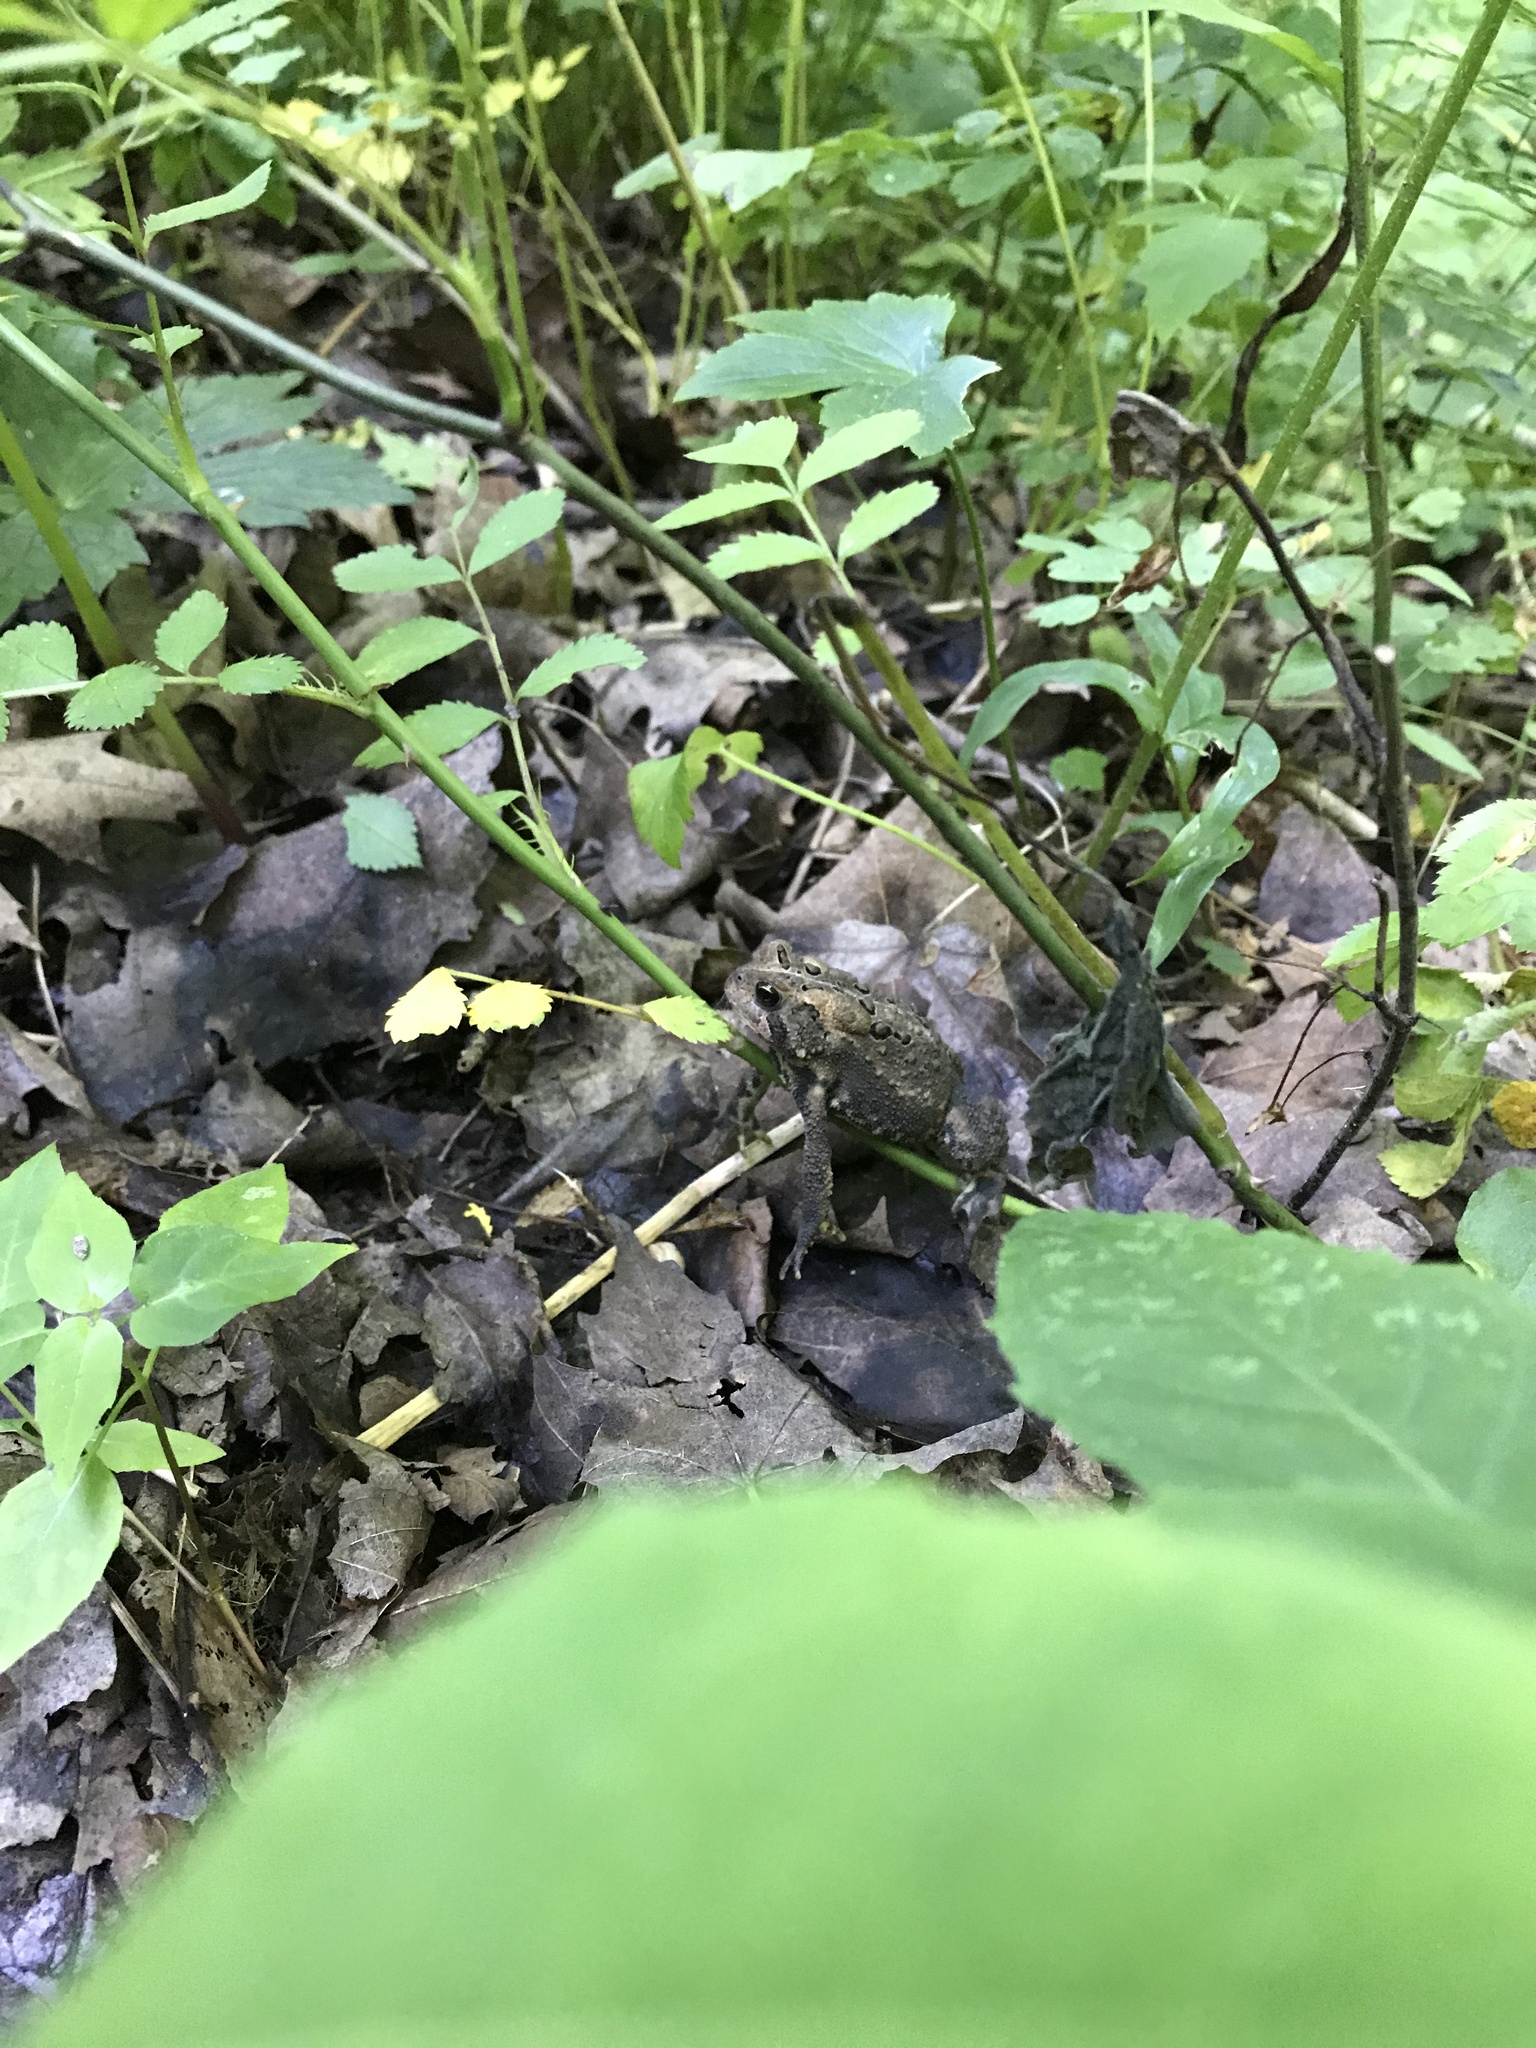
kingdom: Animalia
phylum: Chordata
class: Amphibia
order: Anura
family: Bufonidae
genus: Anaxyrus
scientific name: Anaxyrus americanus
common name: American toad
